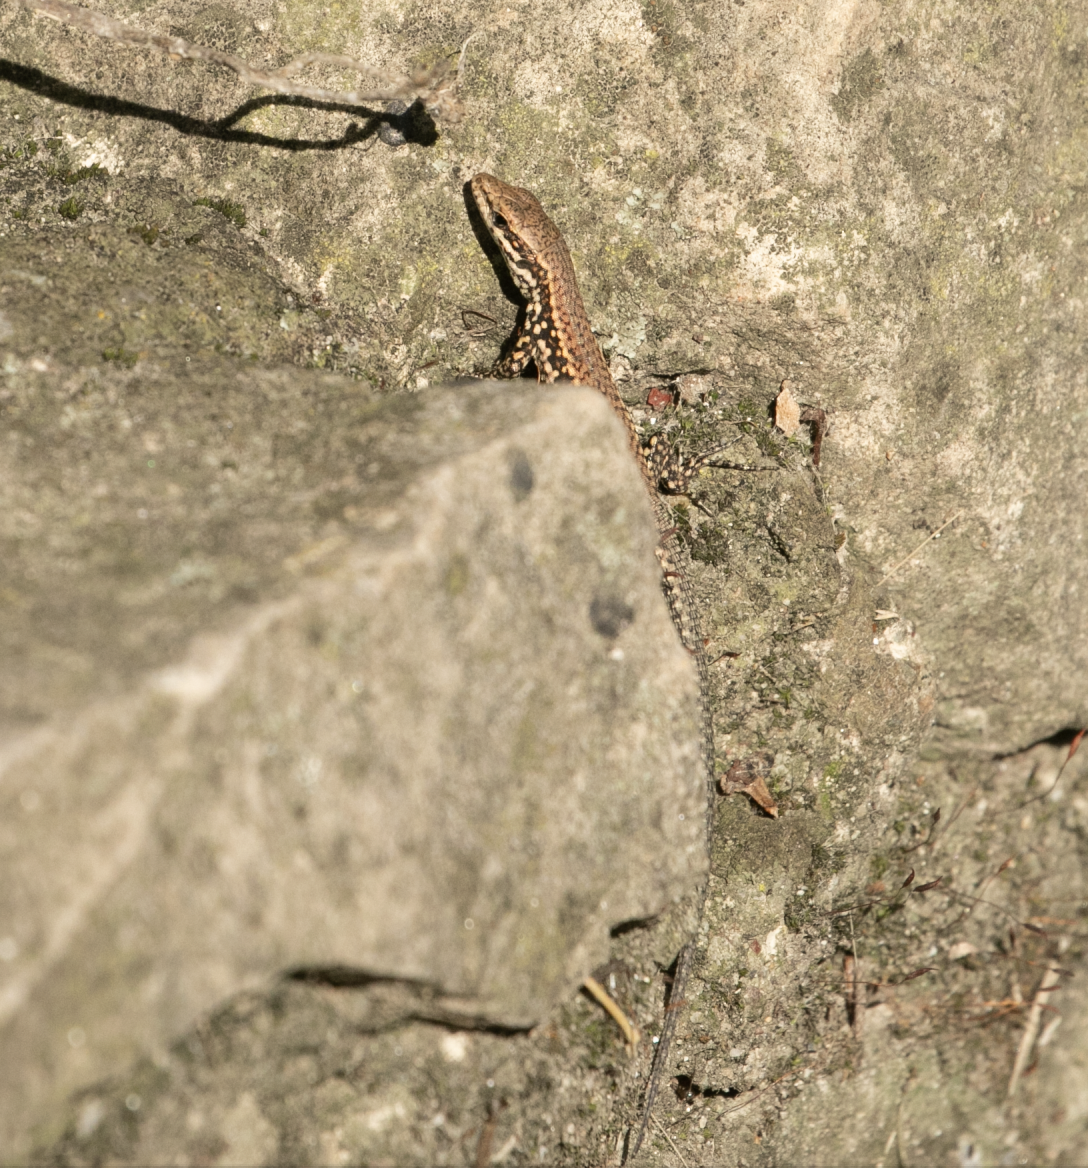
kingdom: Animalia
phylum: Chordata
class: Squamata
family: Lacertidae
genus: Podarcis
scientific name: Podarcis muralis
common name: Common wall lizard
